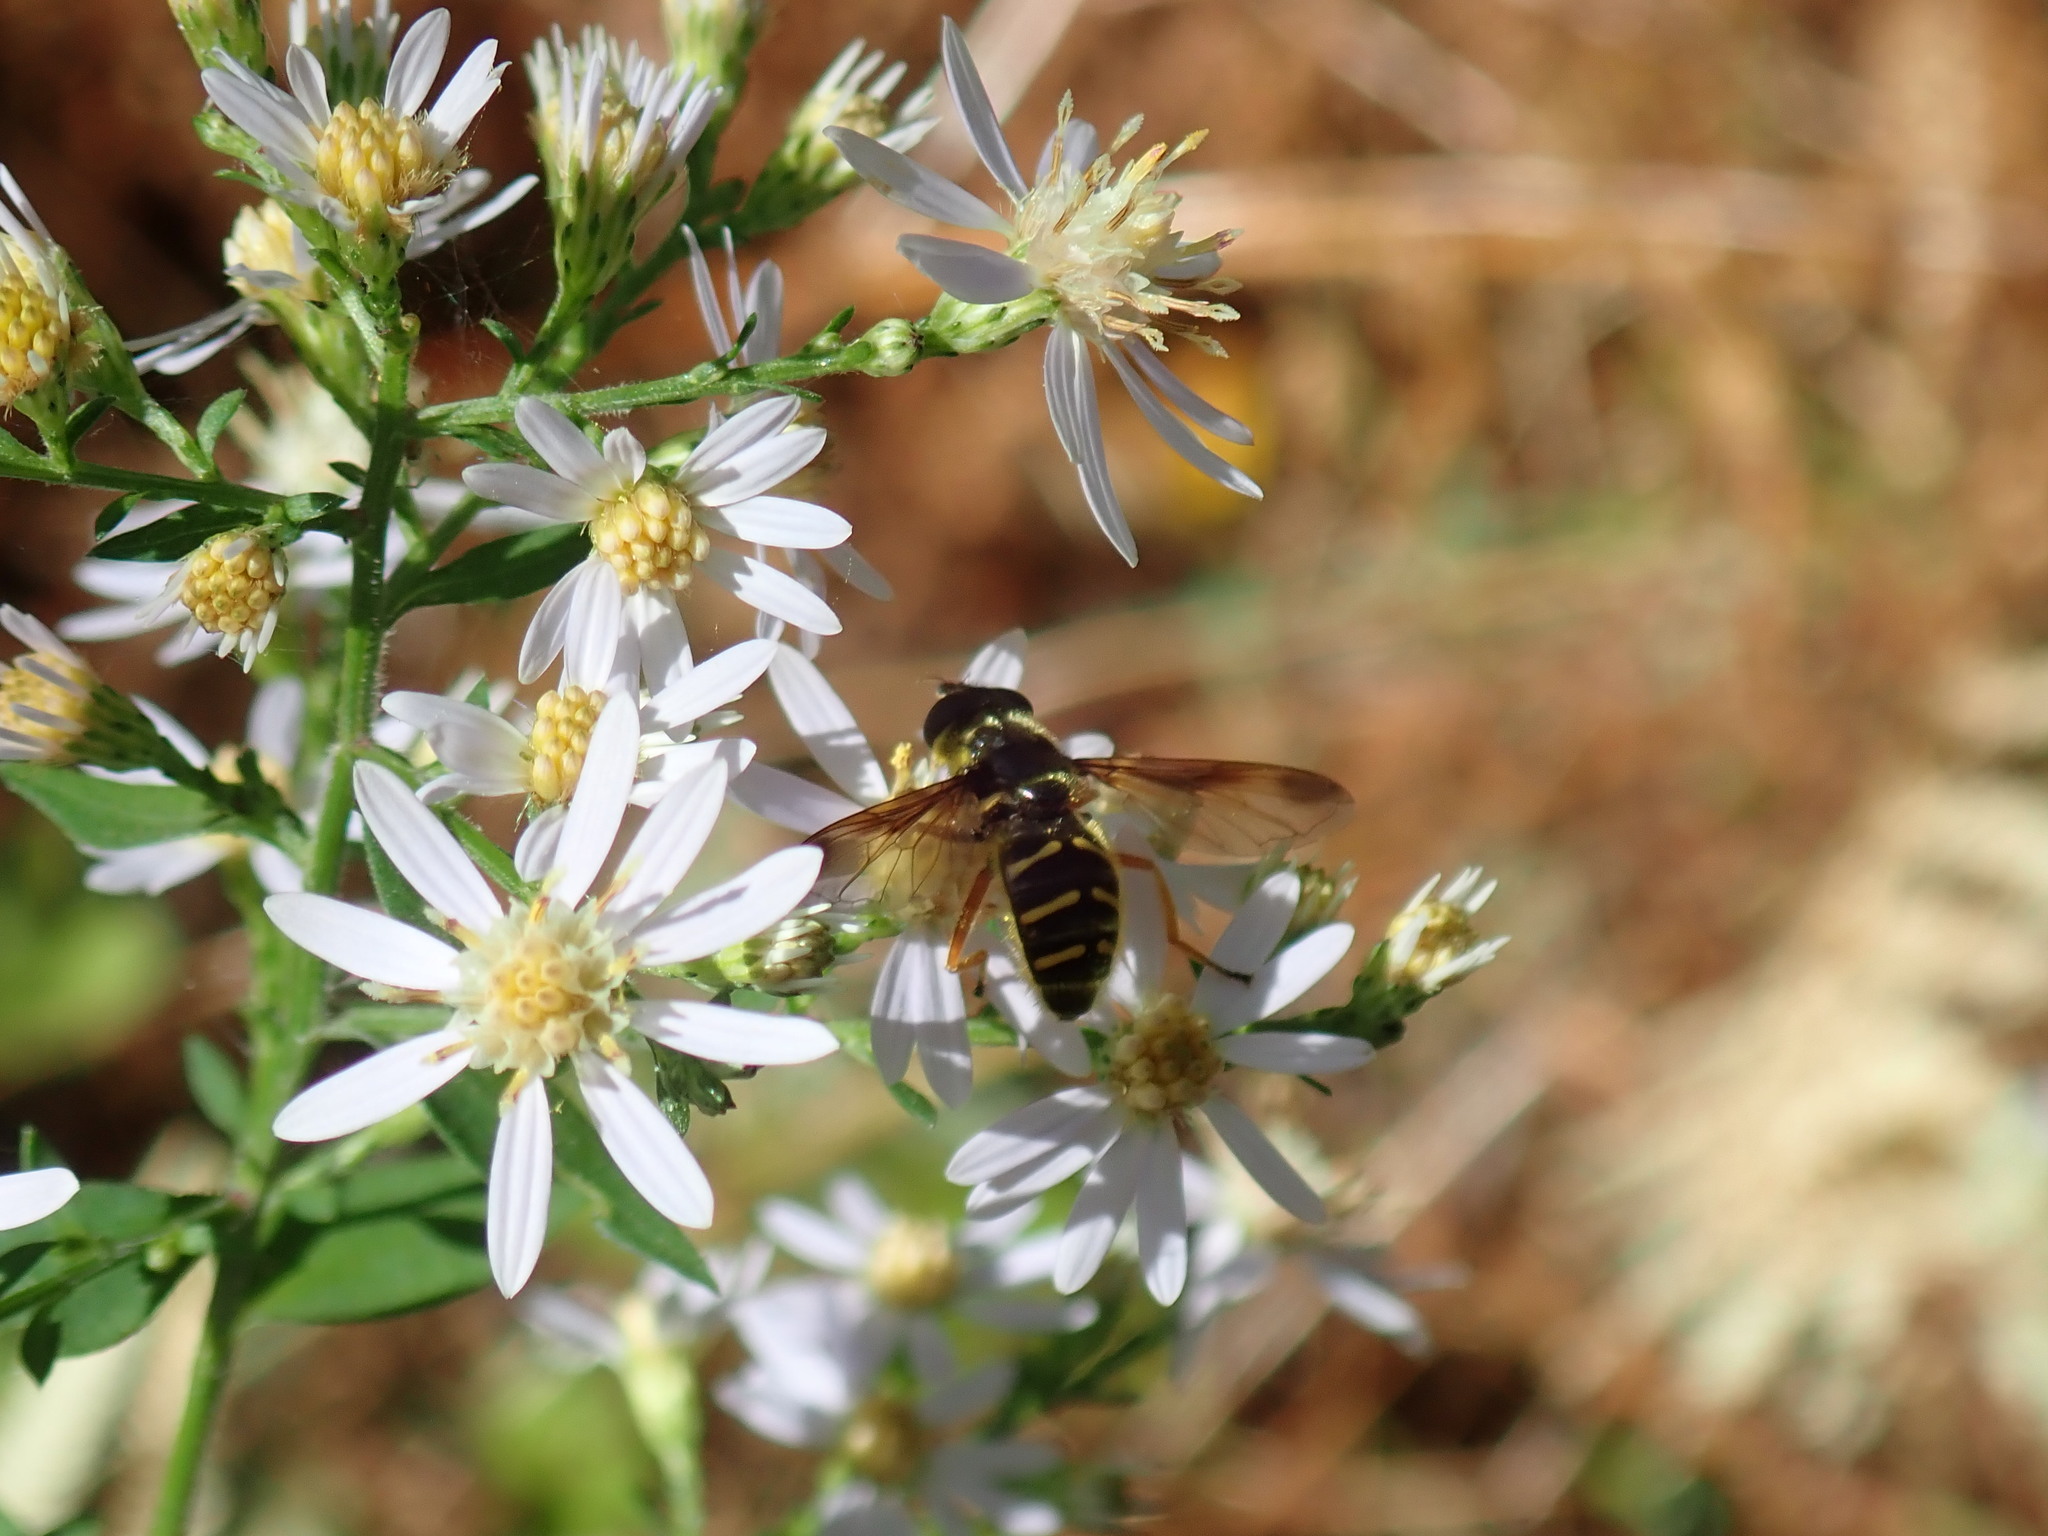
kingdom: Animalia
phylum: Arthropoda
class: Insecta
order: Diptera
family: Syrphidae
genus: Sericomyia
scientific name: Sericomyia chrysotoxoides
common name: Oblique-banded pond fly
